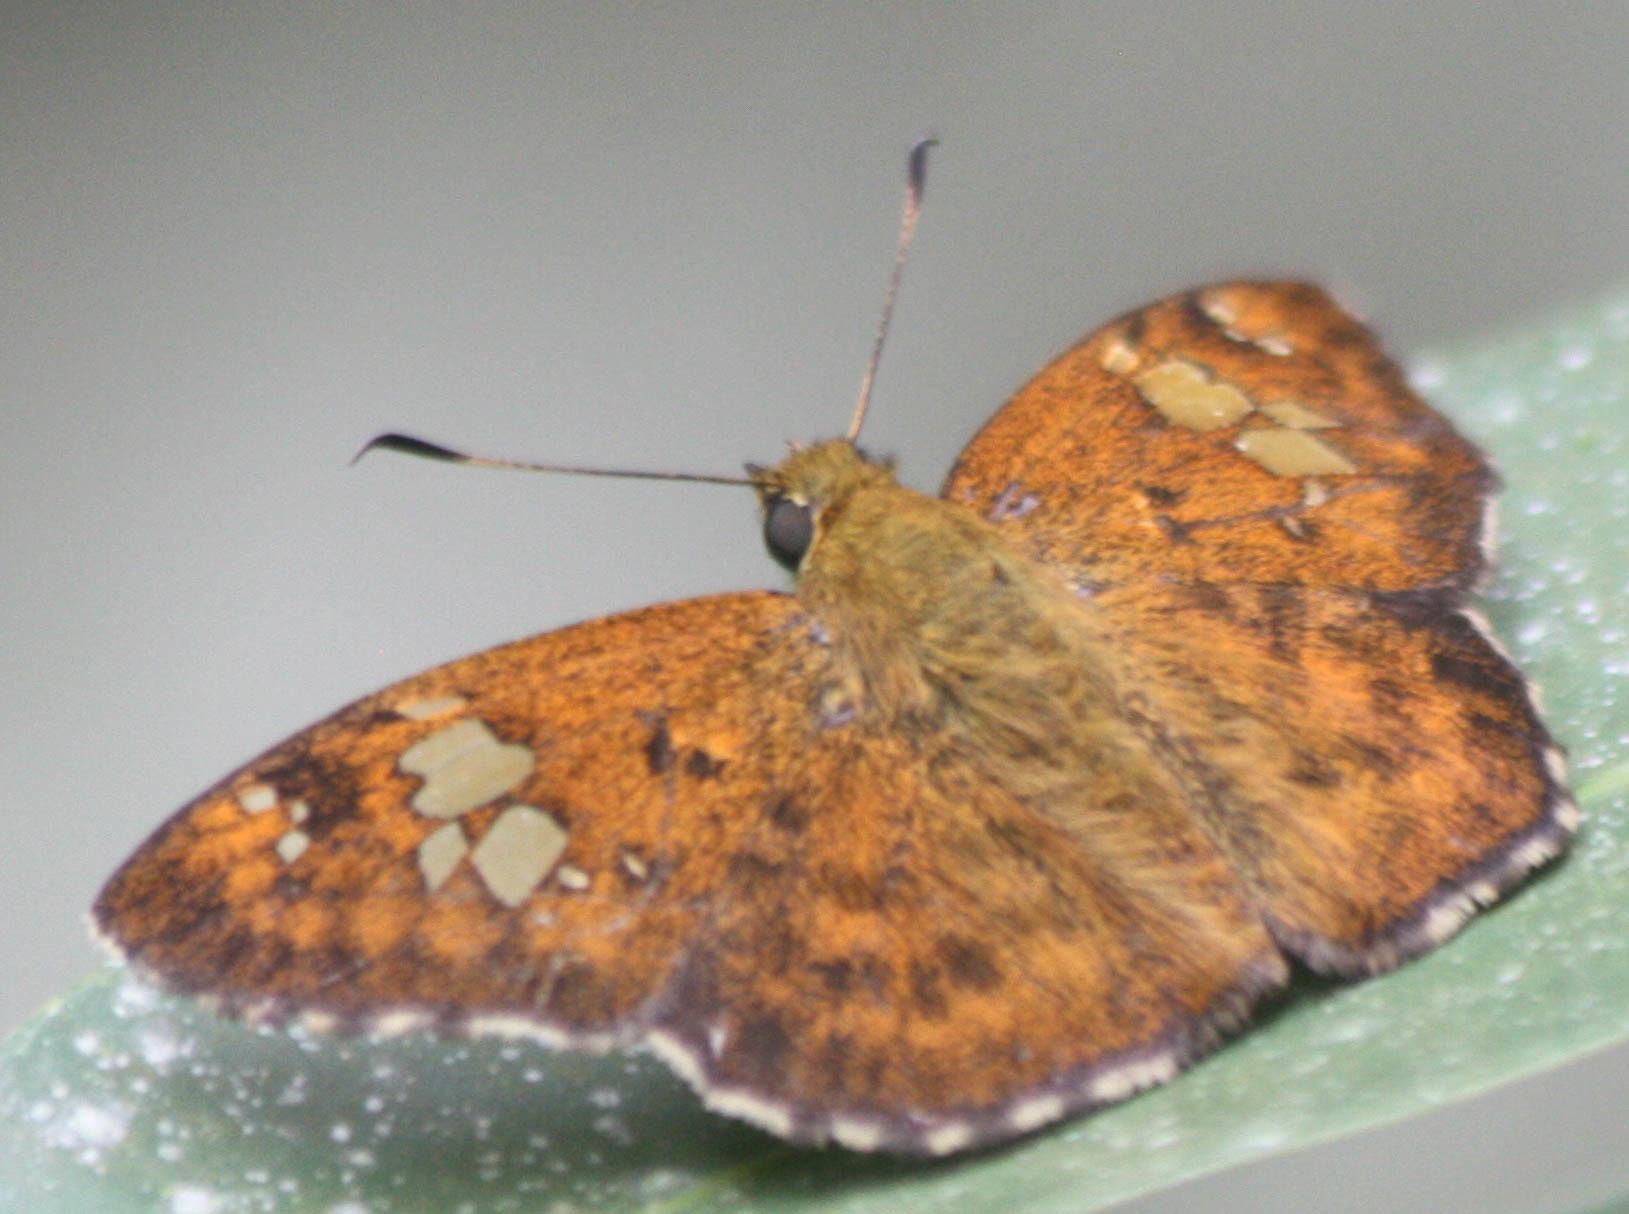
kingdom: Animalia
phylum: Arthropoda
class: Insecta
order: Lepidoptera
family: Hesperiidae
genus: Pseudocoladenia
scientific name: Pseudocoladenia dan
